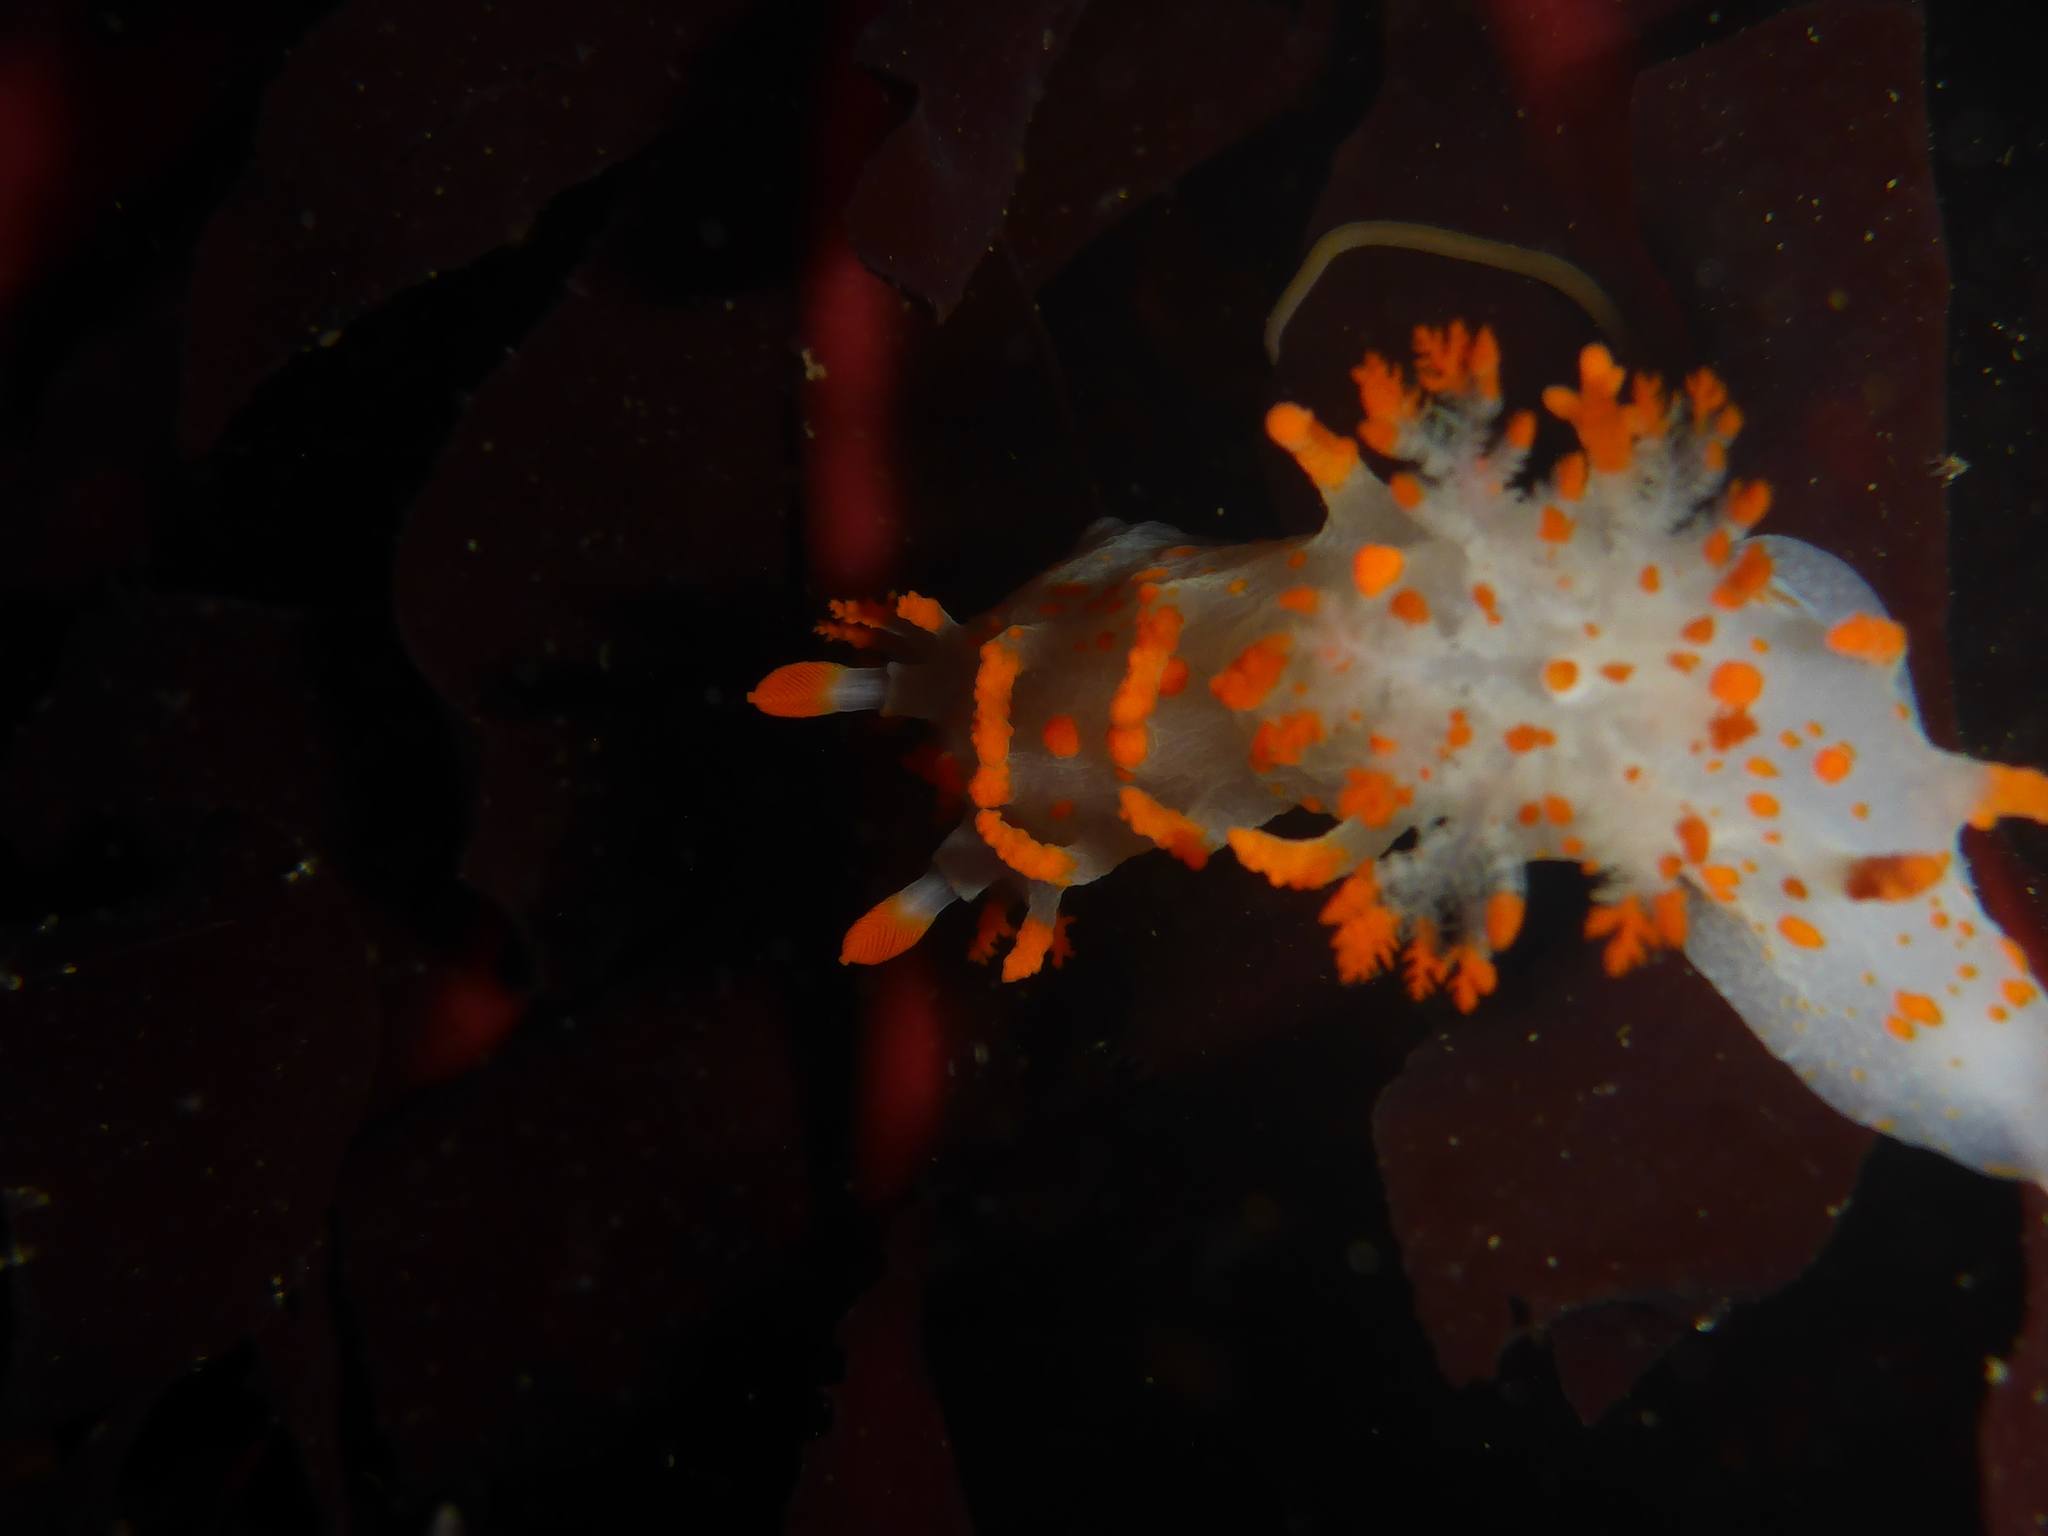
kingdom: Animalia
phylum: Mollusca
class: Gastropoda
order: Nudibranchia
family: Polyceridae
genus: Triopha
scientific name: Triopha catalinae
